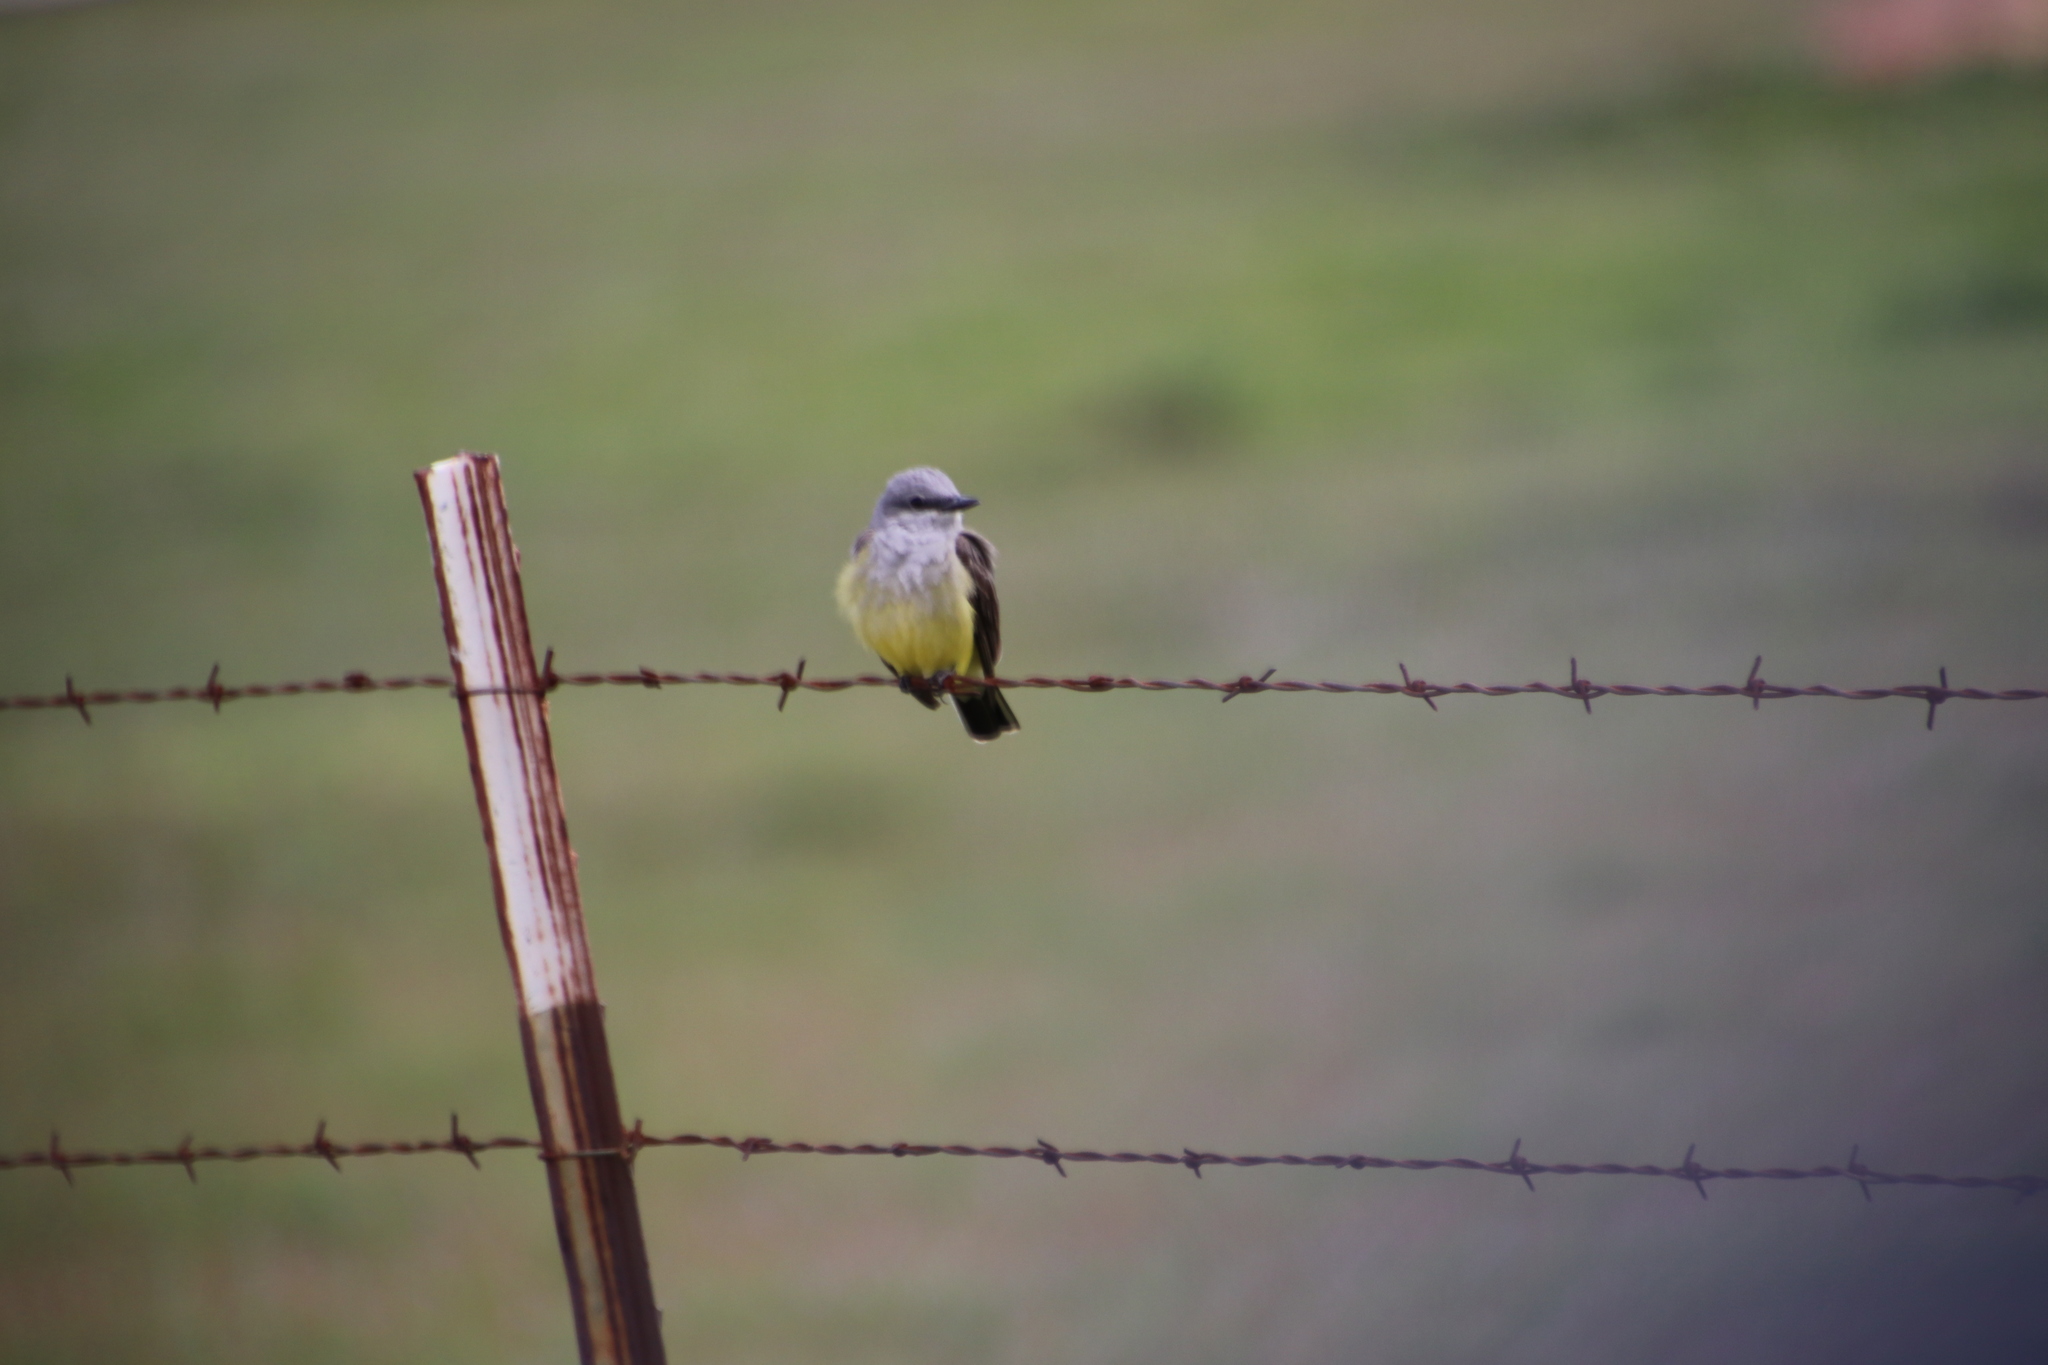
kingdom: Animalia
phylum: Chordata
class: Aves
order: Passeriformes
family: Tyrannidae
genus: Tyrannus
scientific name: Tyrannus verticalis
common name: Western kingbird
